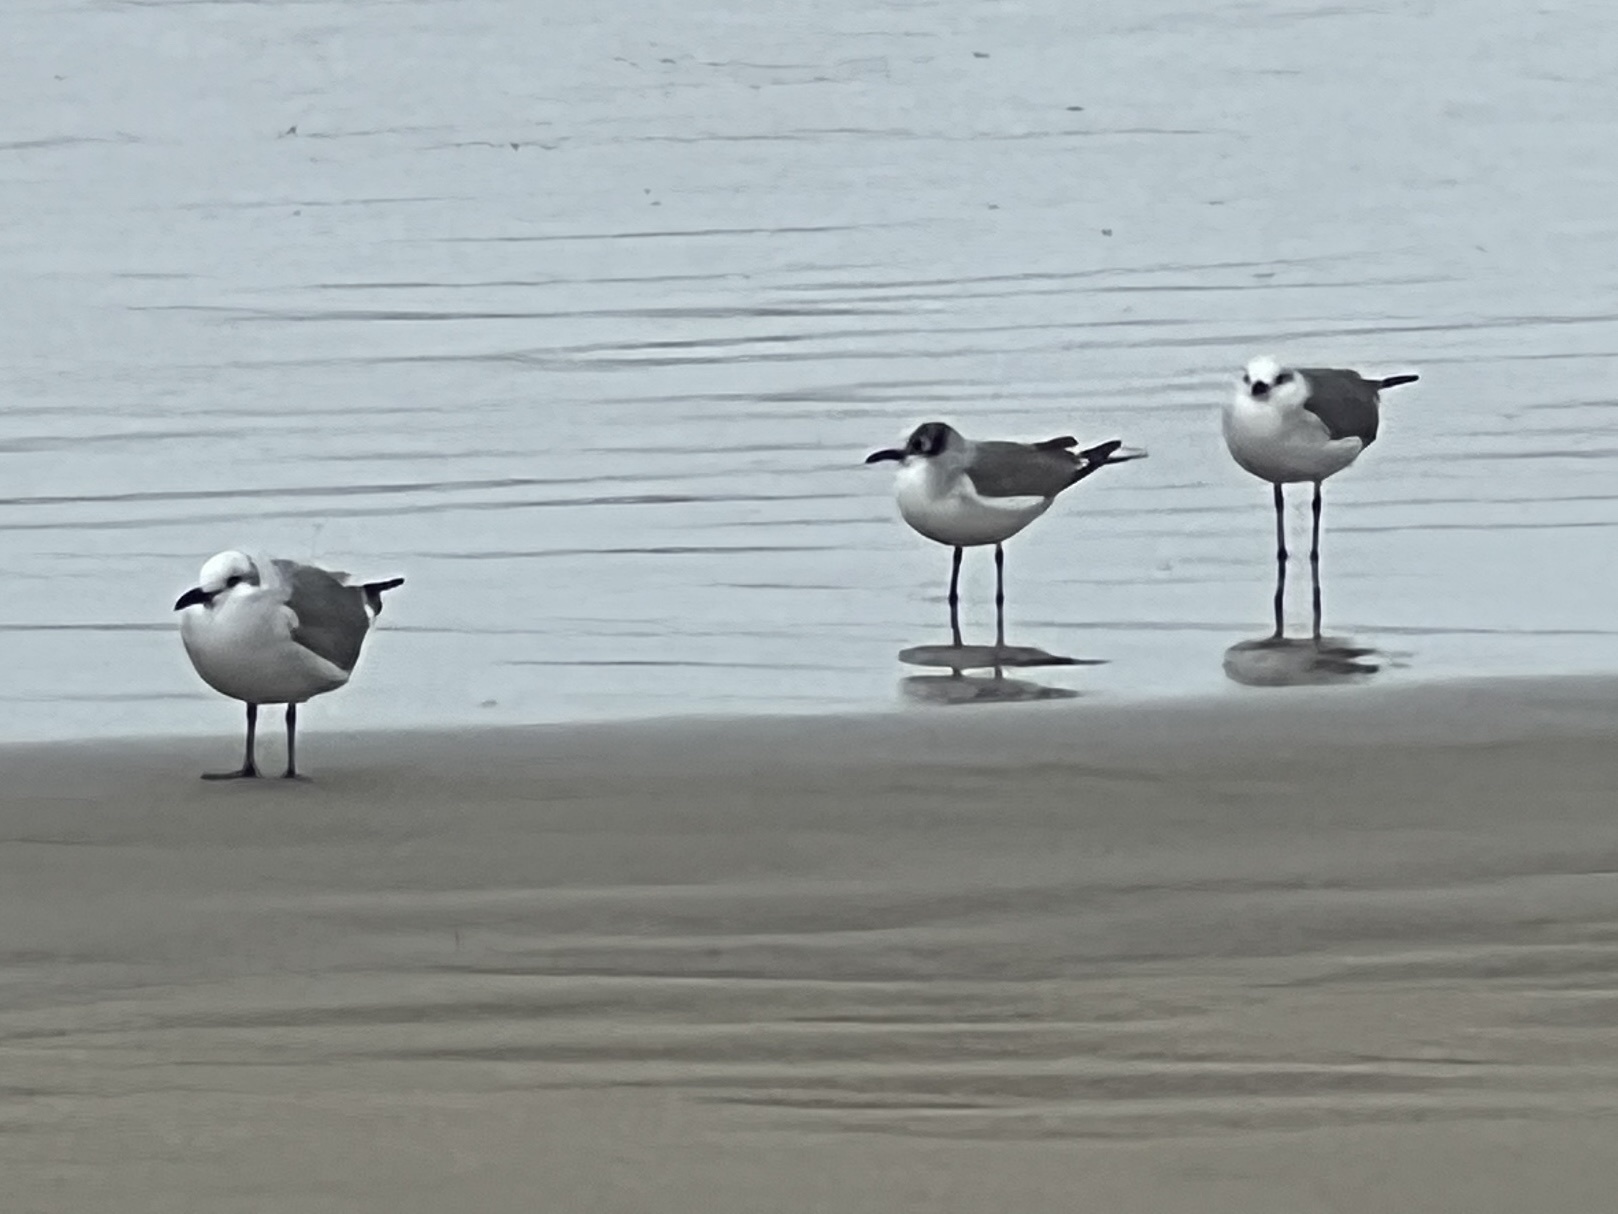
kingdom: Animalia
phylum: Chordata
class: Aves
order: Charadriiformes
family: Laridae
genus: Leucophaeus
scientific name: Leucophaeus atricilla
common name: Laughing gull
